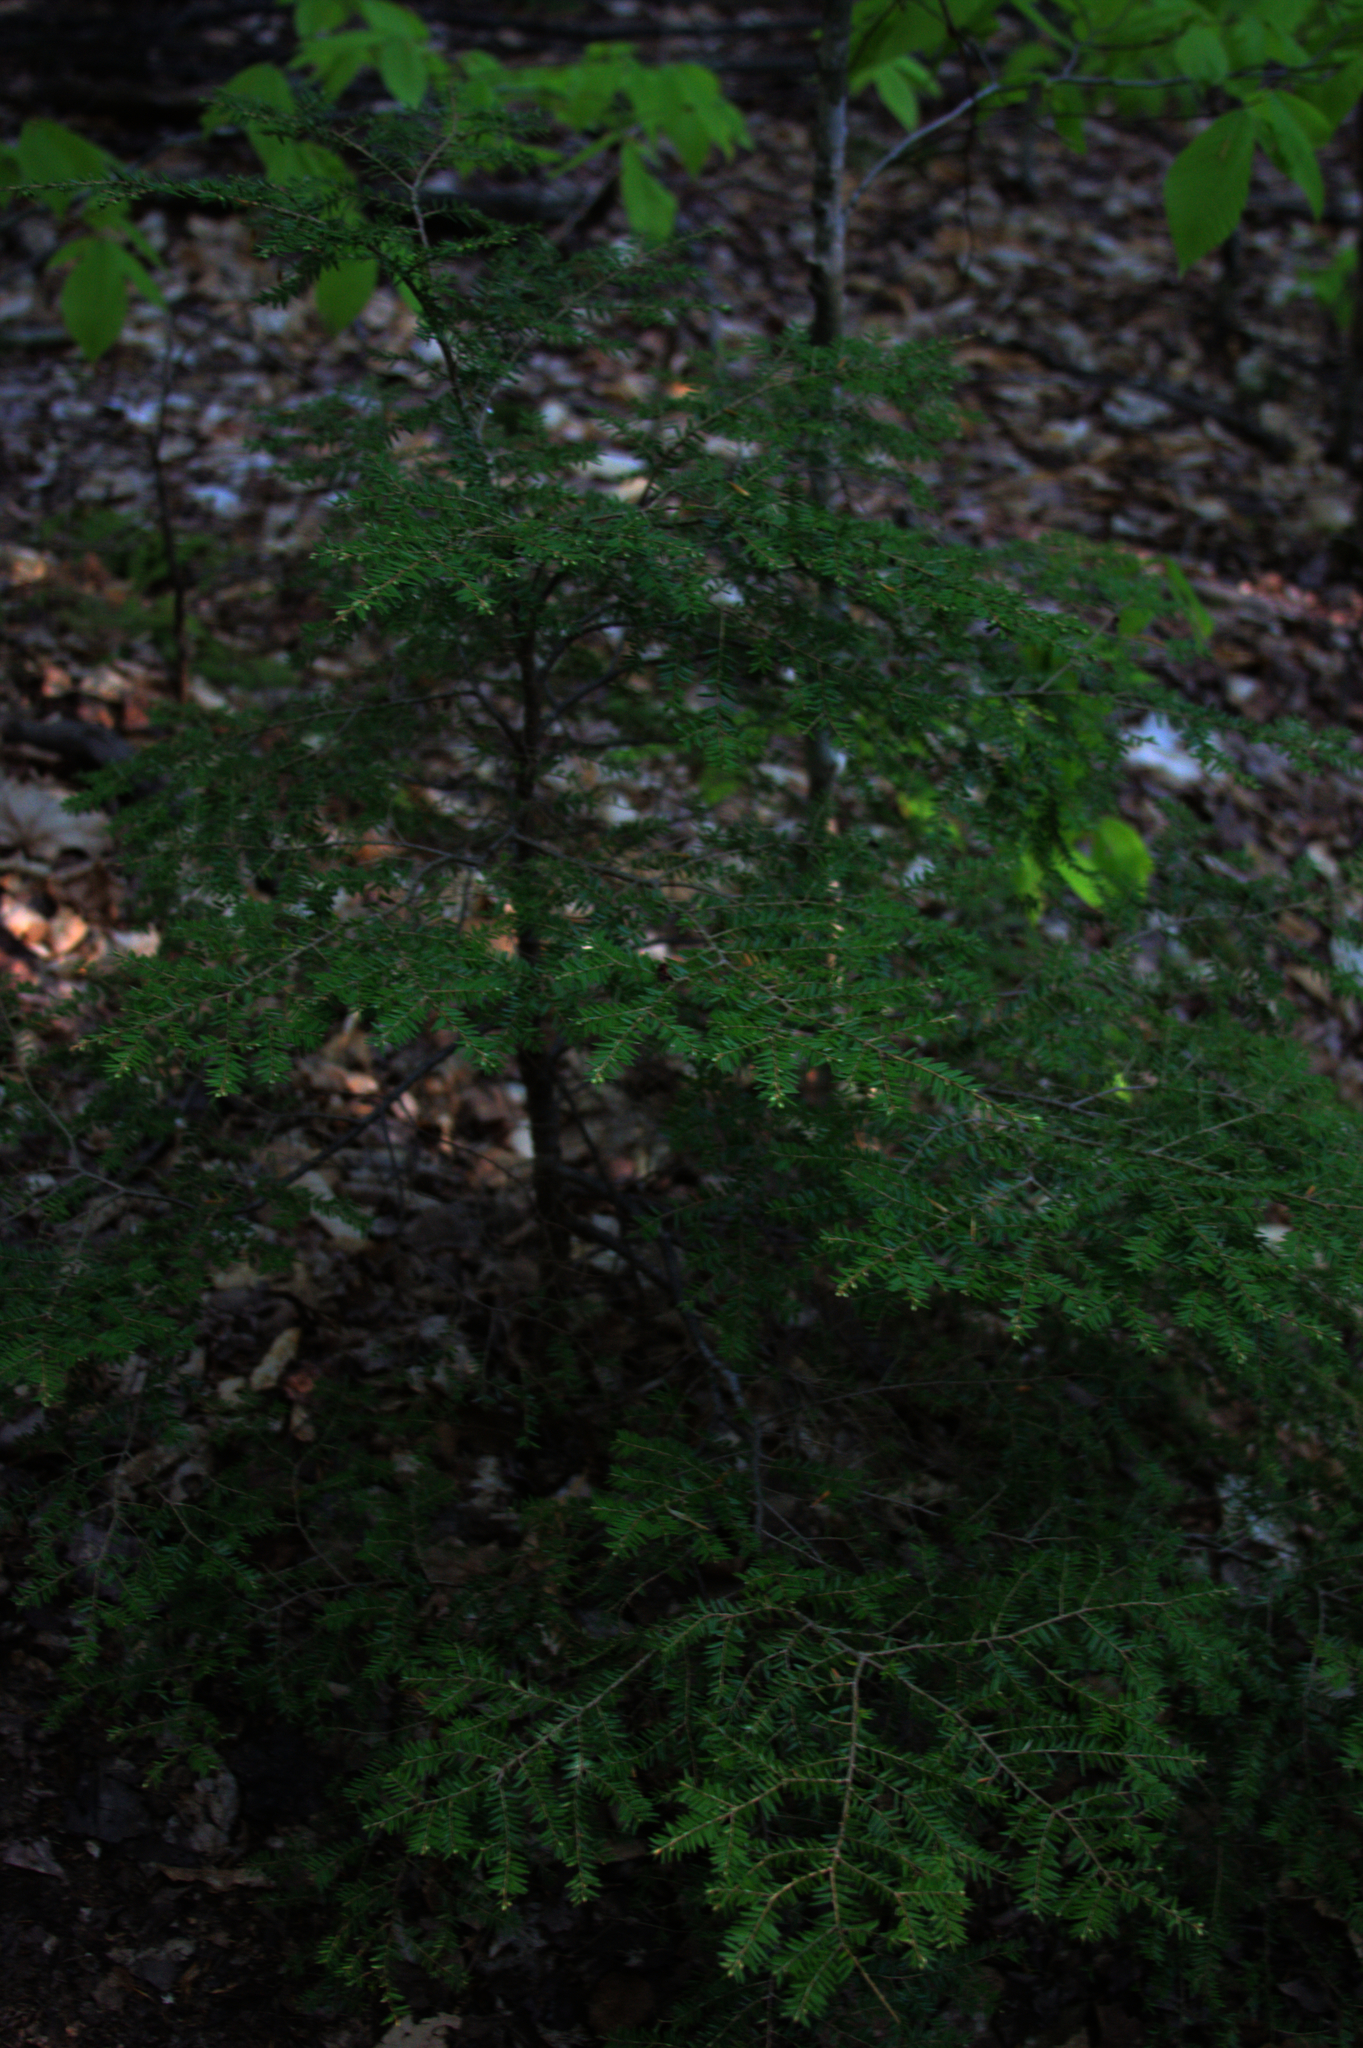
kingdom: Plantae
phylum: Tracheophyta
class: Pinopsida
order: Pinales
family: Pinaceae
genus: Tsuga
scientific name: Tsuga canadensis
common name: Eastern hemlock
